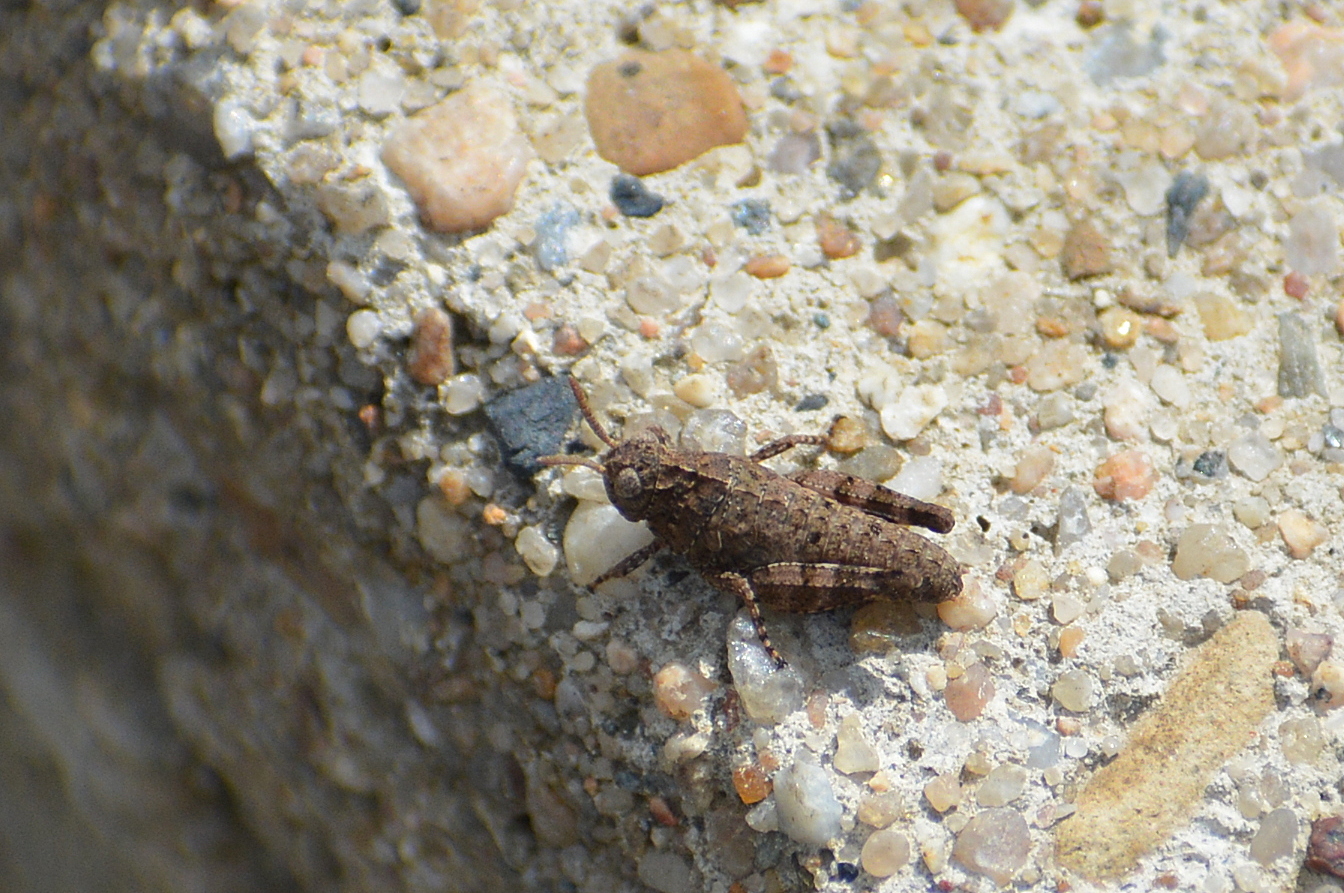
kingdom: Animalia
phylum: Arthropoda
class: Insecta
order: Orthoptera
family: Acrididae
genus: Oedipoda
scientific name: Oedipoda caerulescens
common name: Blue-winged grasshopper
